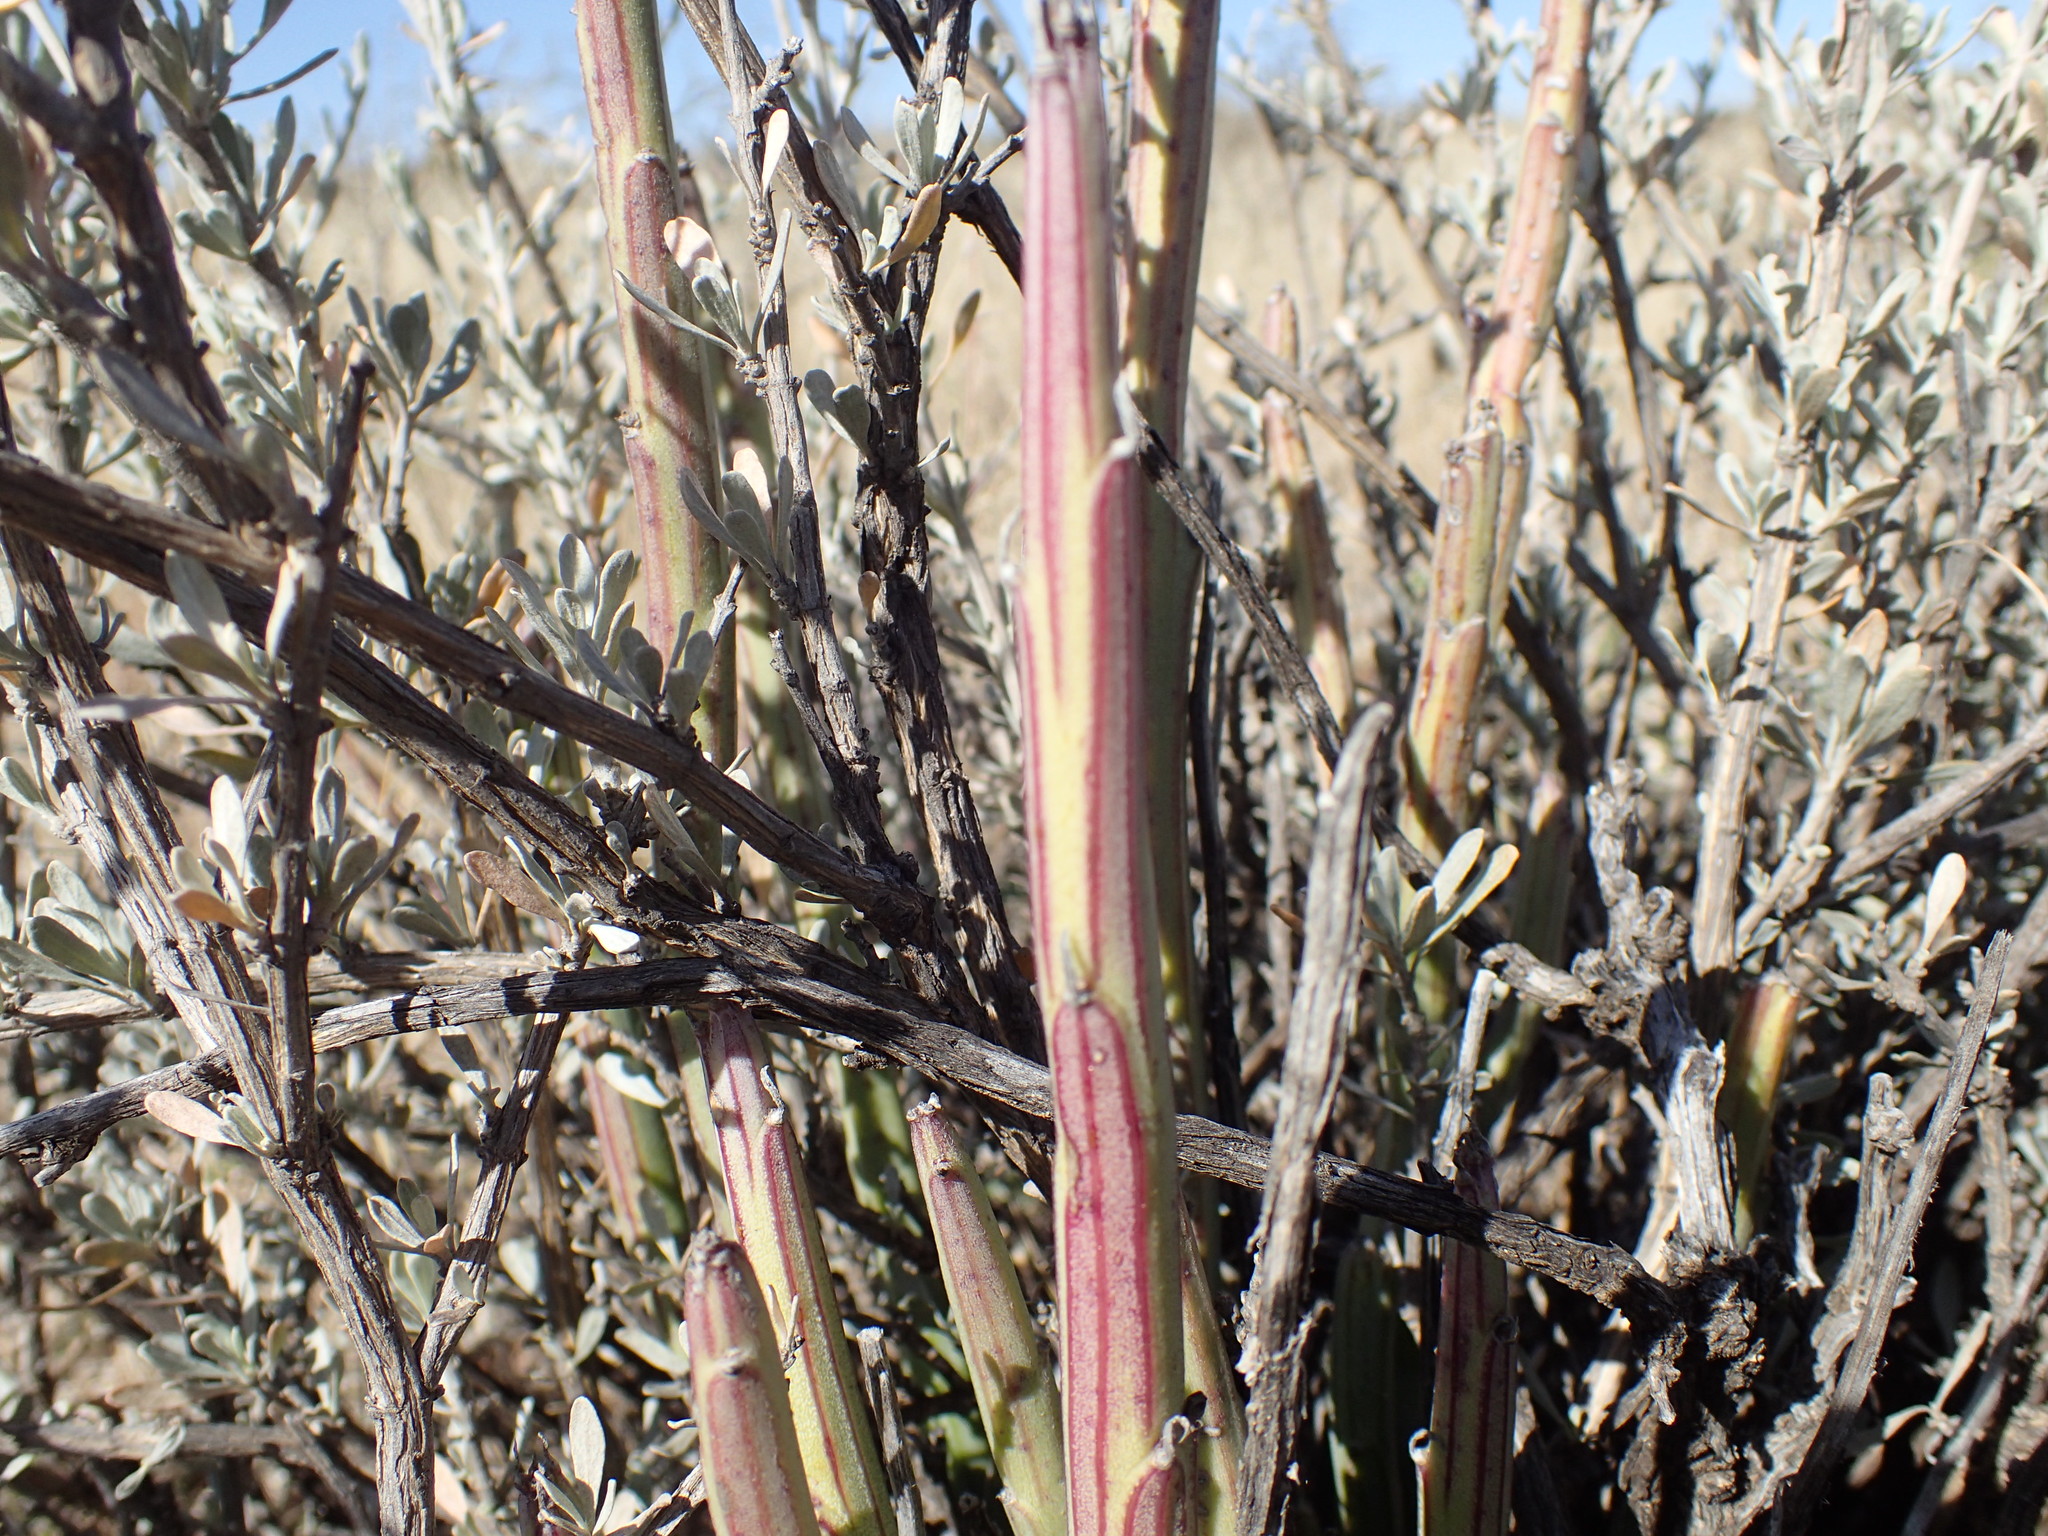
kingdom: Plantae
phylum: Tracheophyta
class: Magnoliopsida
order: Asterales
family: Asteraceae
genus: Curio
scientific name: Curio avasimontanus
